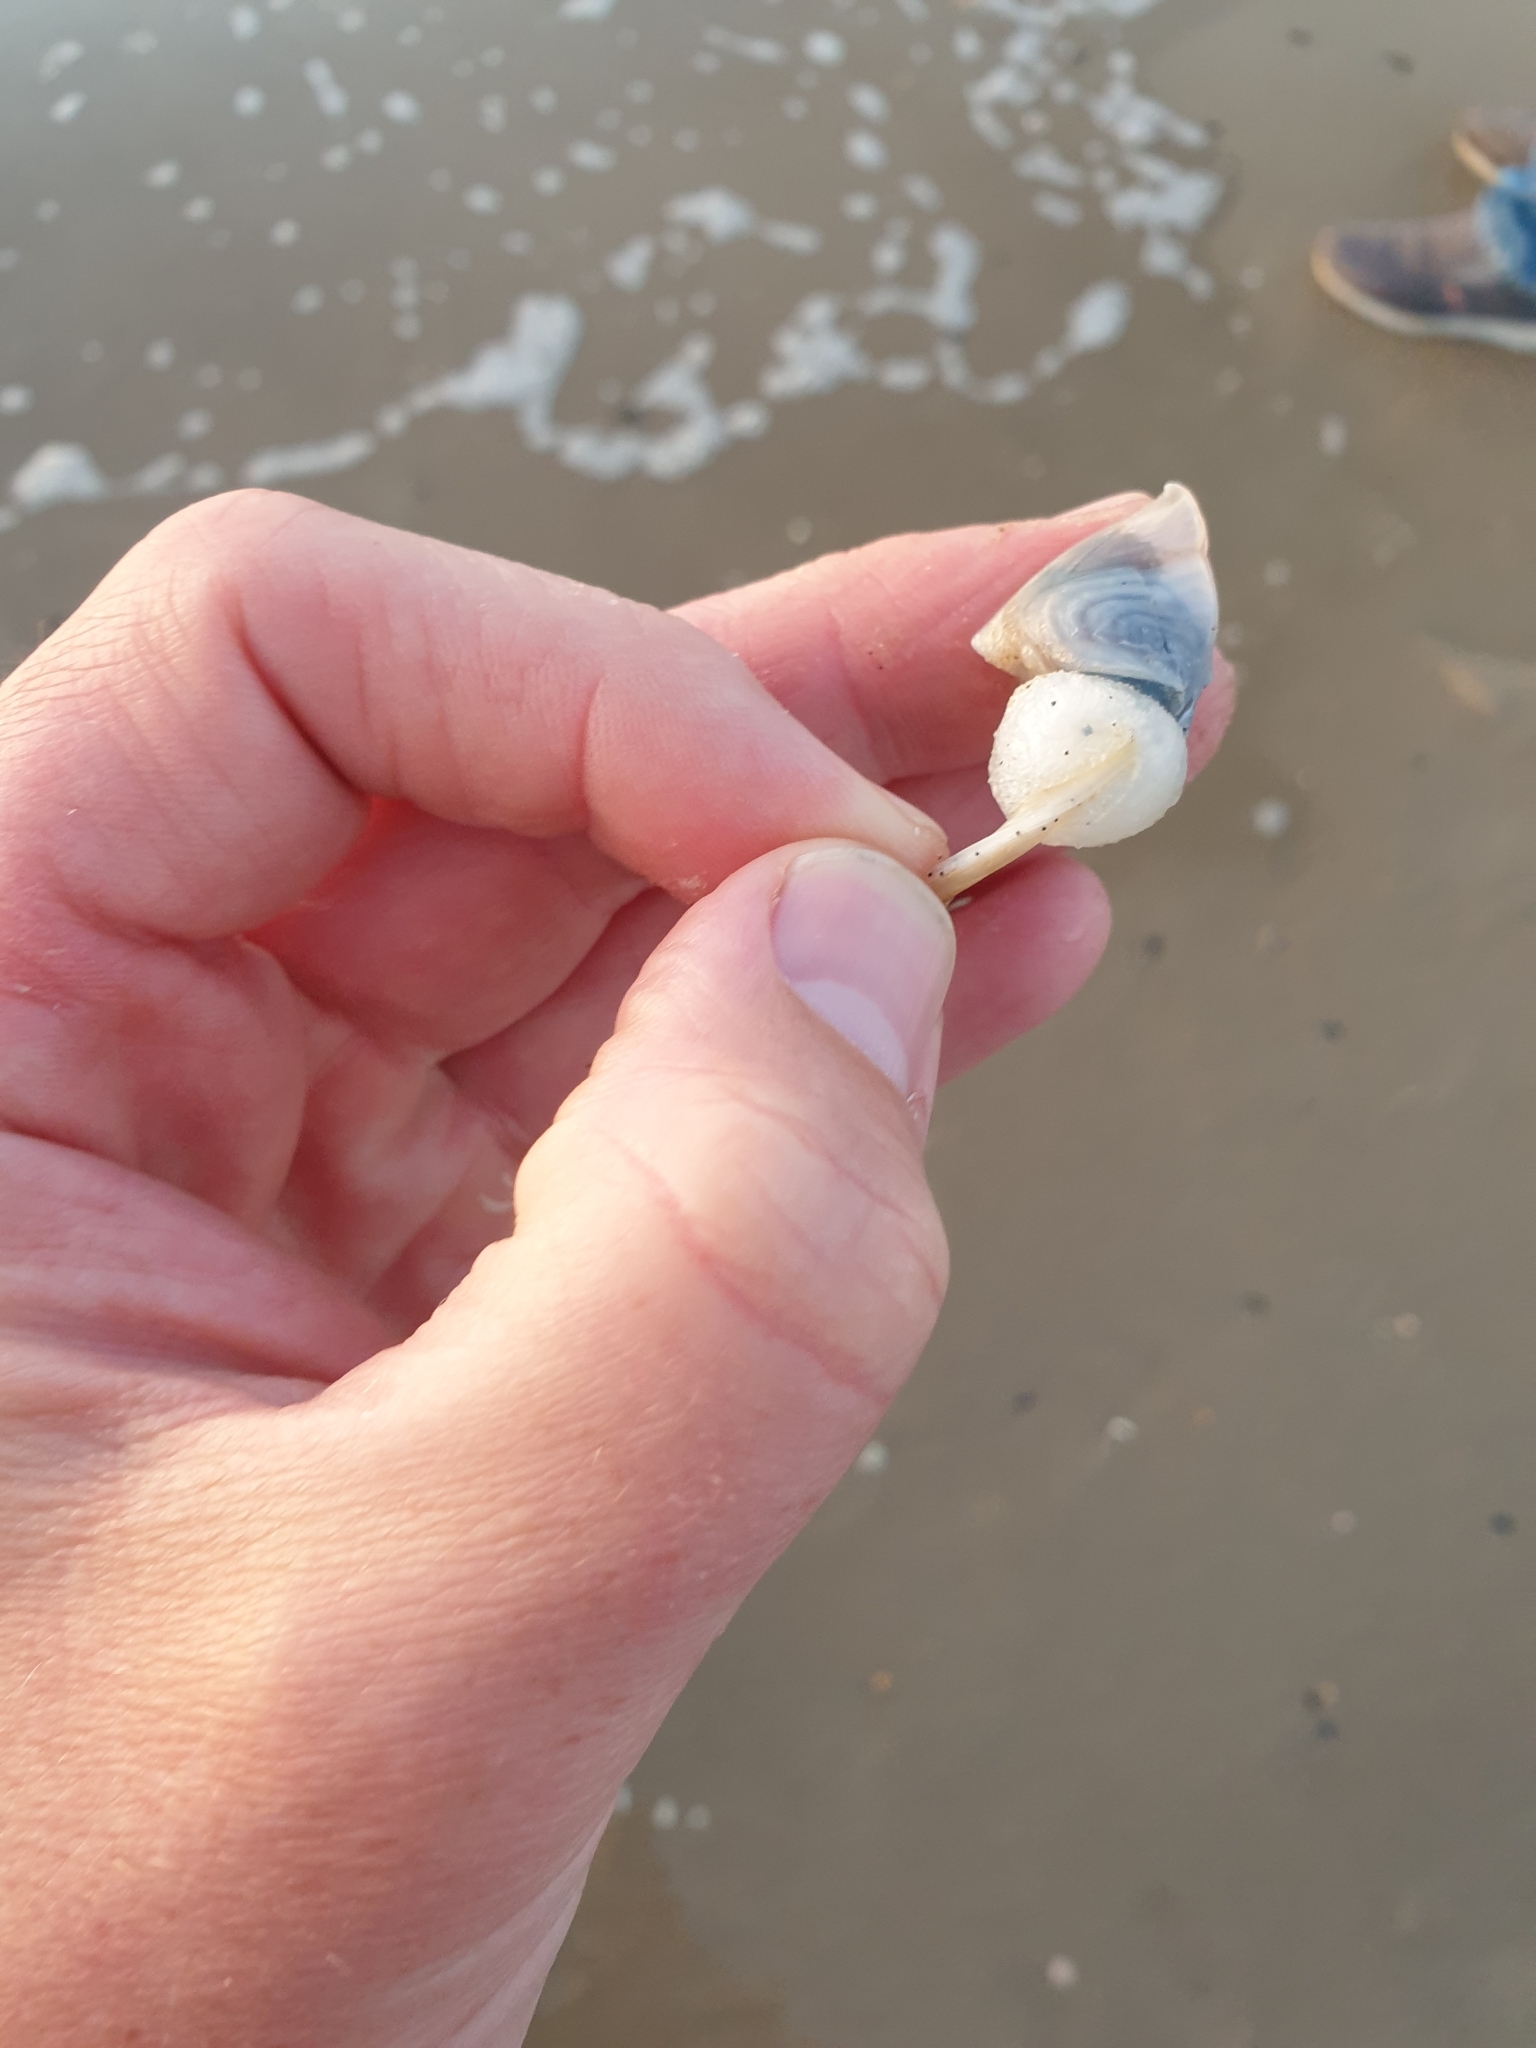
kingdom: Animalia
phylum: Arthropoda
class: Maxillopoda
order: Pedunculata
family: Lepadidae
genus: Dosima
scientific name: Dosima fascicularis
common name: Buoy barnacle
